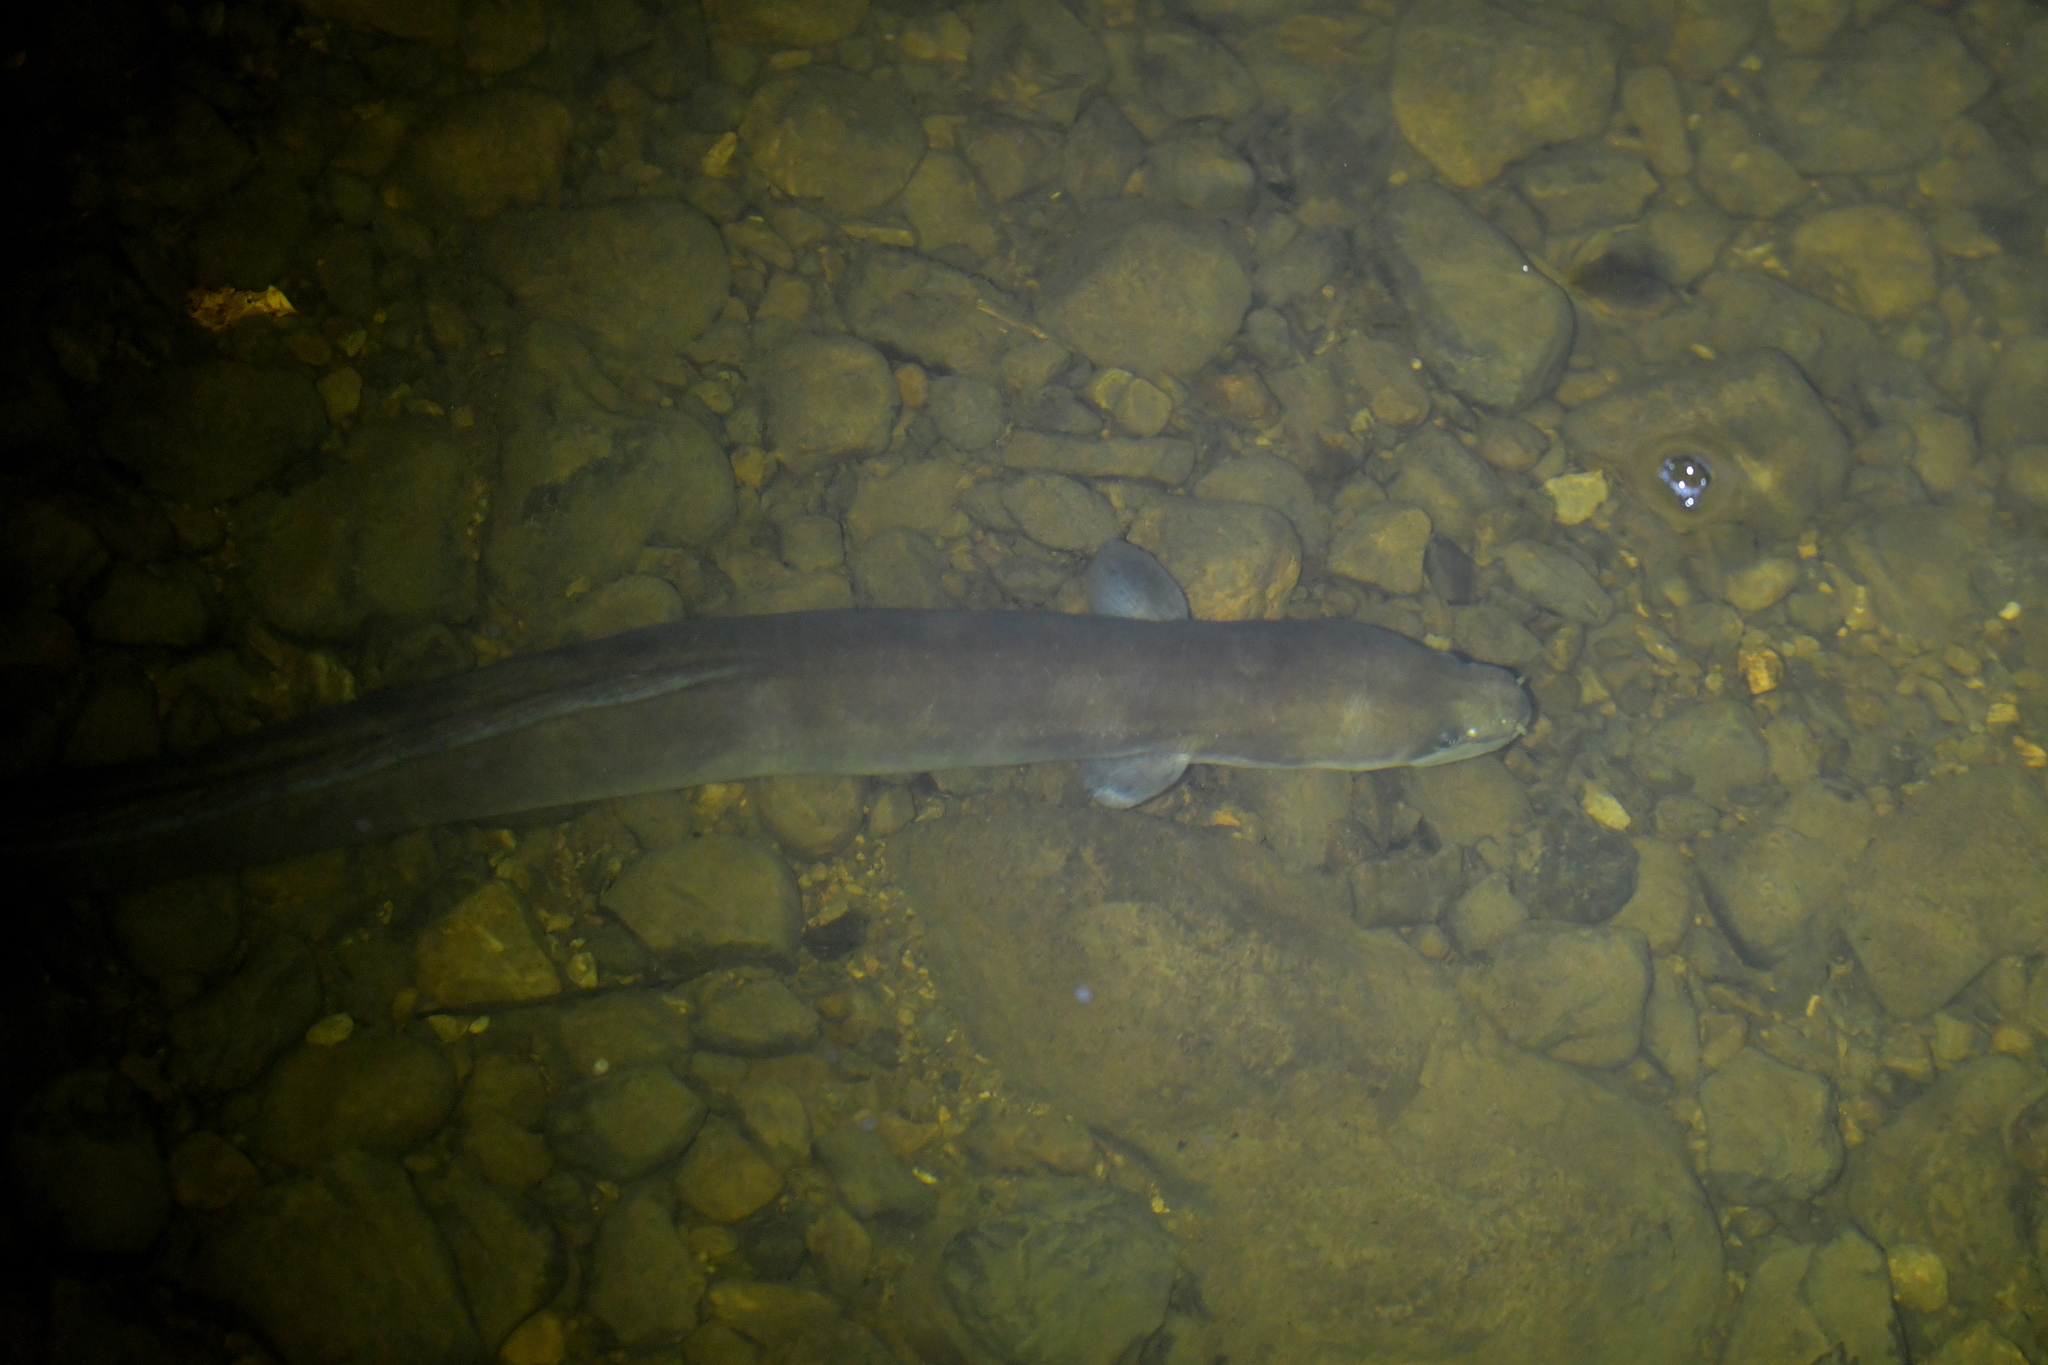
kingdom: Animalia
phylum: Chordata
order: Anguilliformes
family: Anguillidae
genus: Anguilla
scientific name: Anguilla dieffenbachii
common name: New zealand longfin eel
